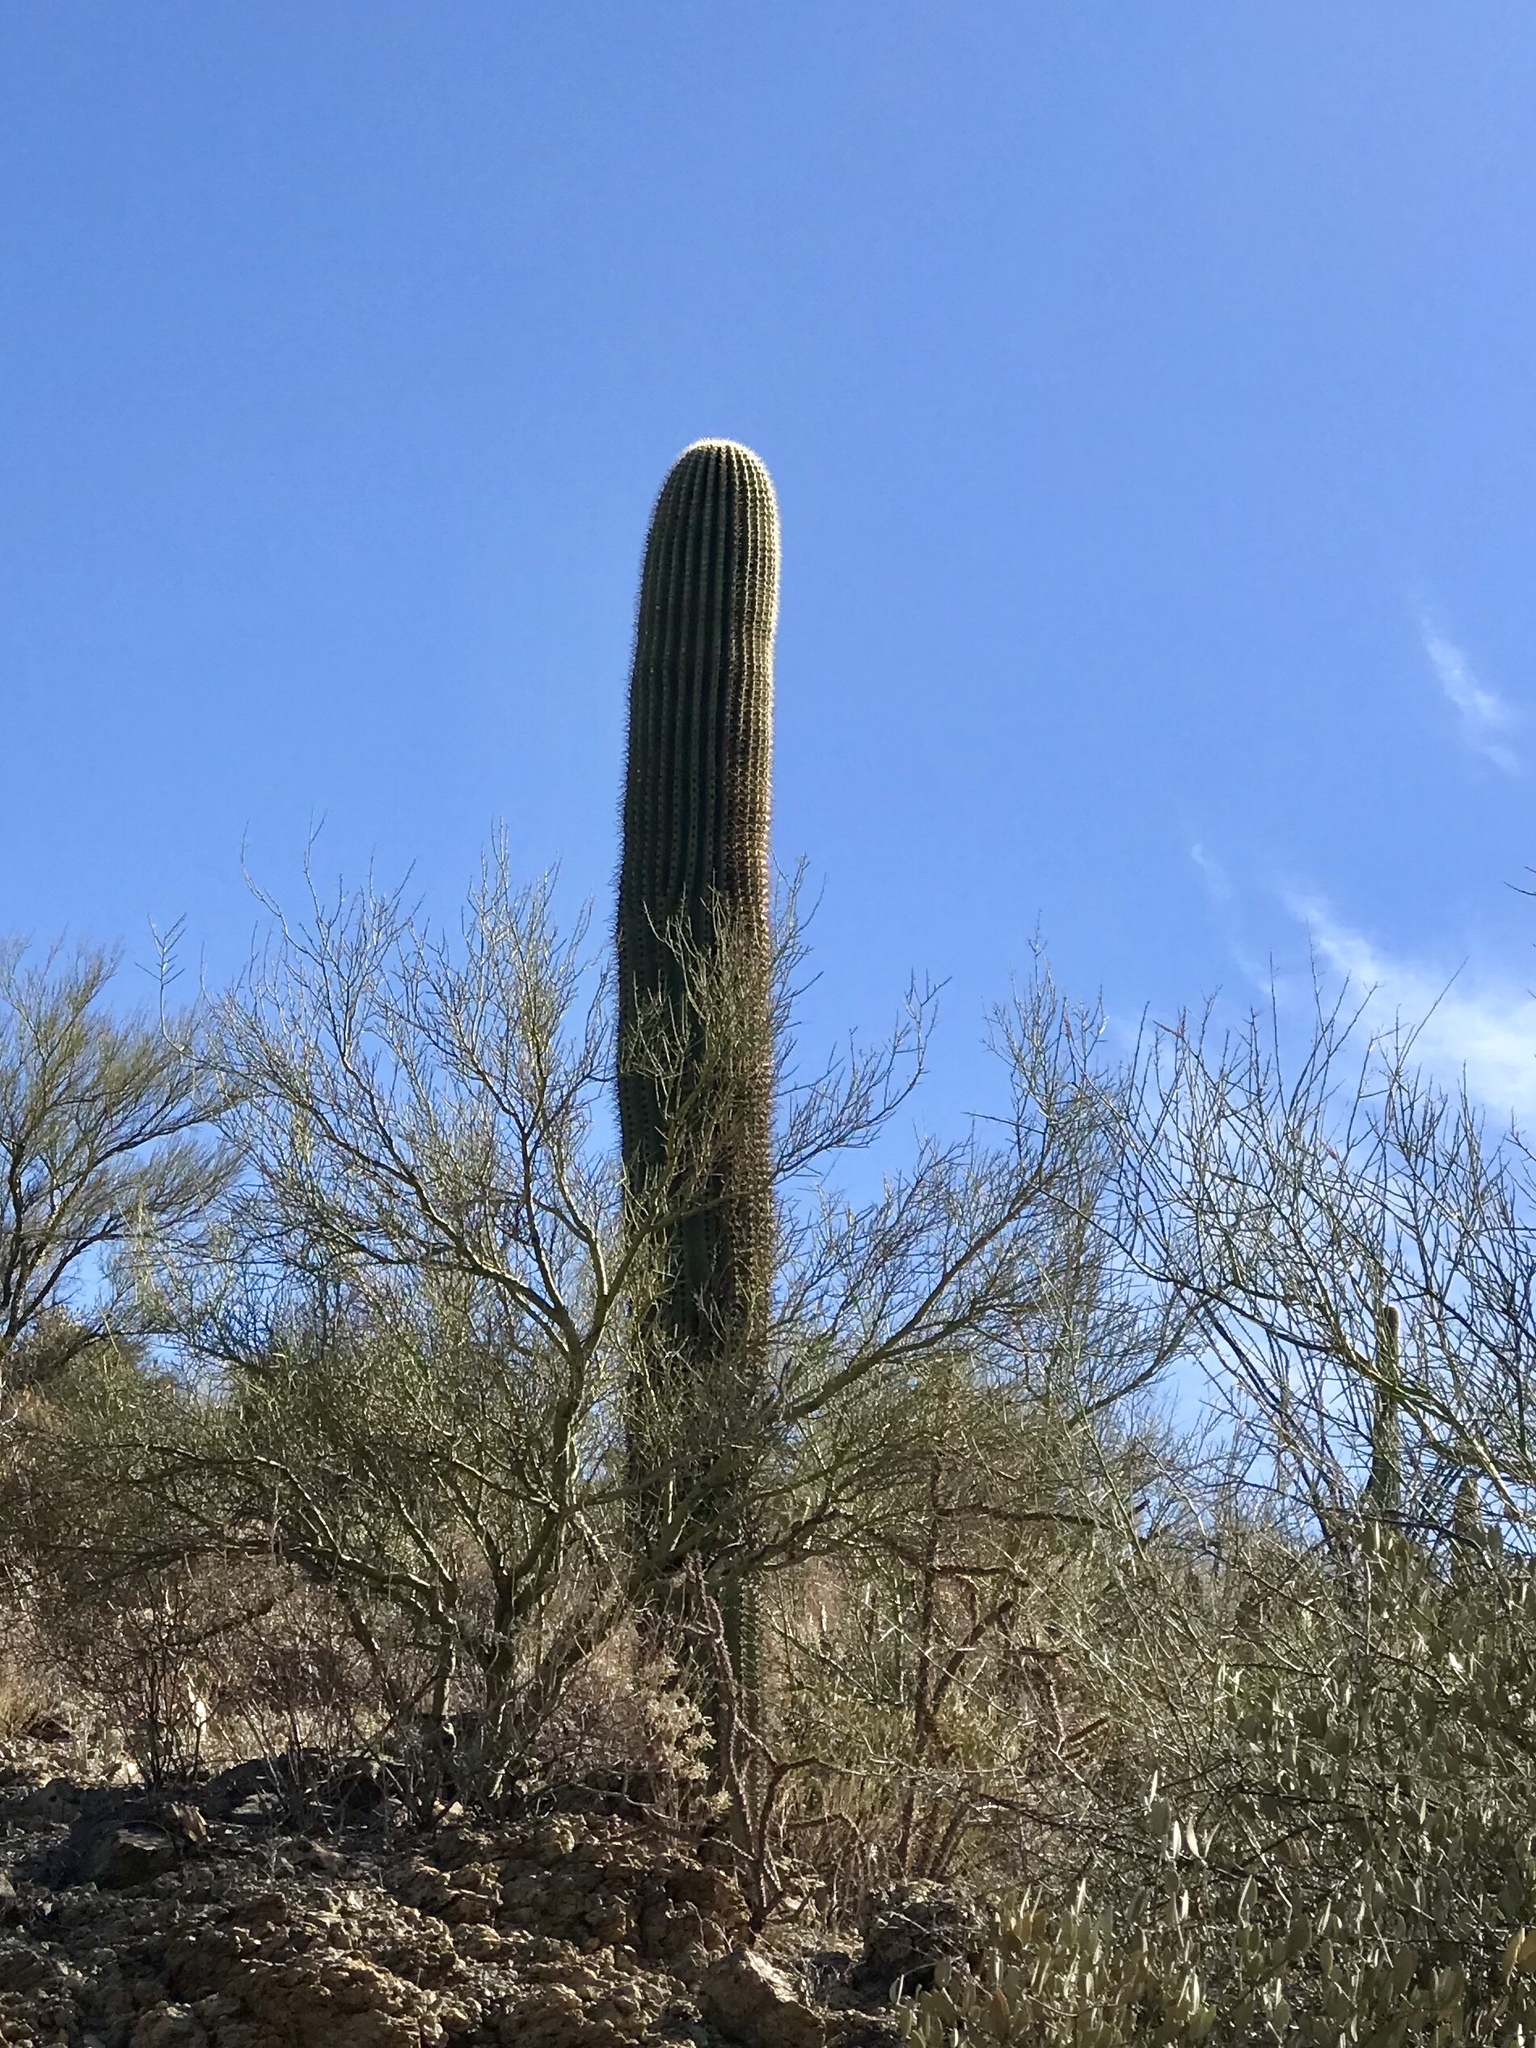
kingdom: Plantae
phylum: Tracheophyta
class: Magnoliopsida
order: Caryophyllales
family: Cactaceae
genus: Carnegiea
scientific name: Carnegiea gigantea
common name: Saguaro
